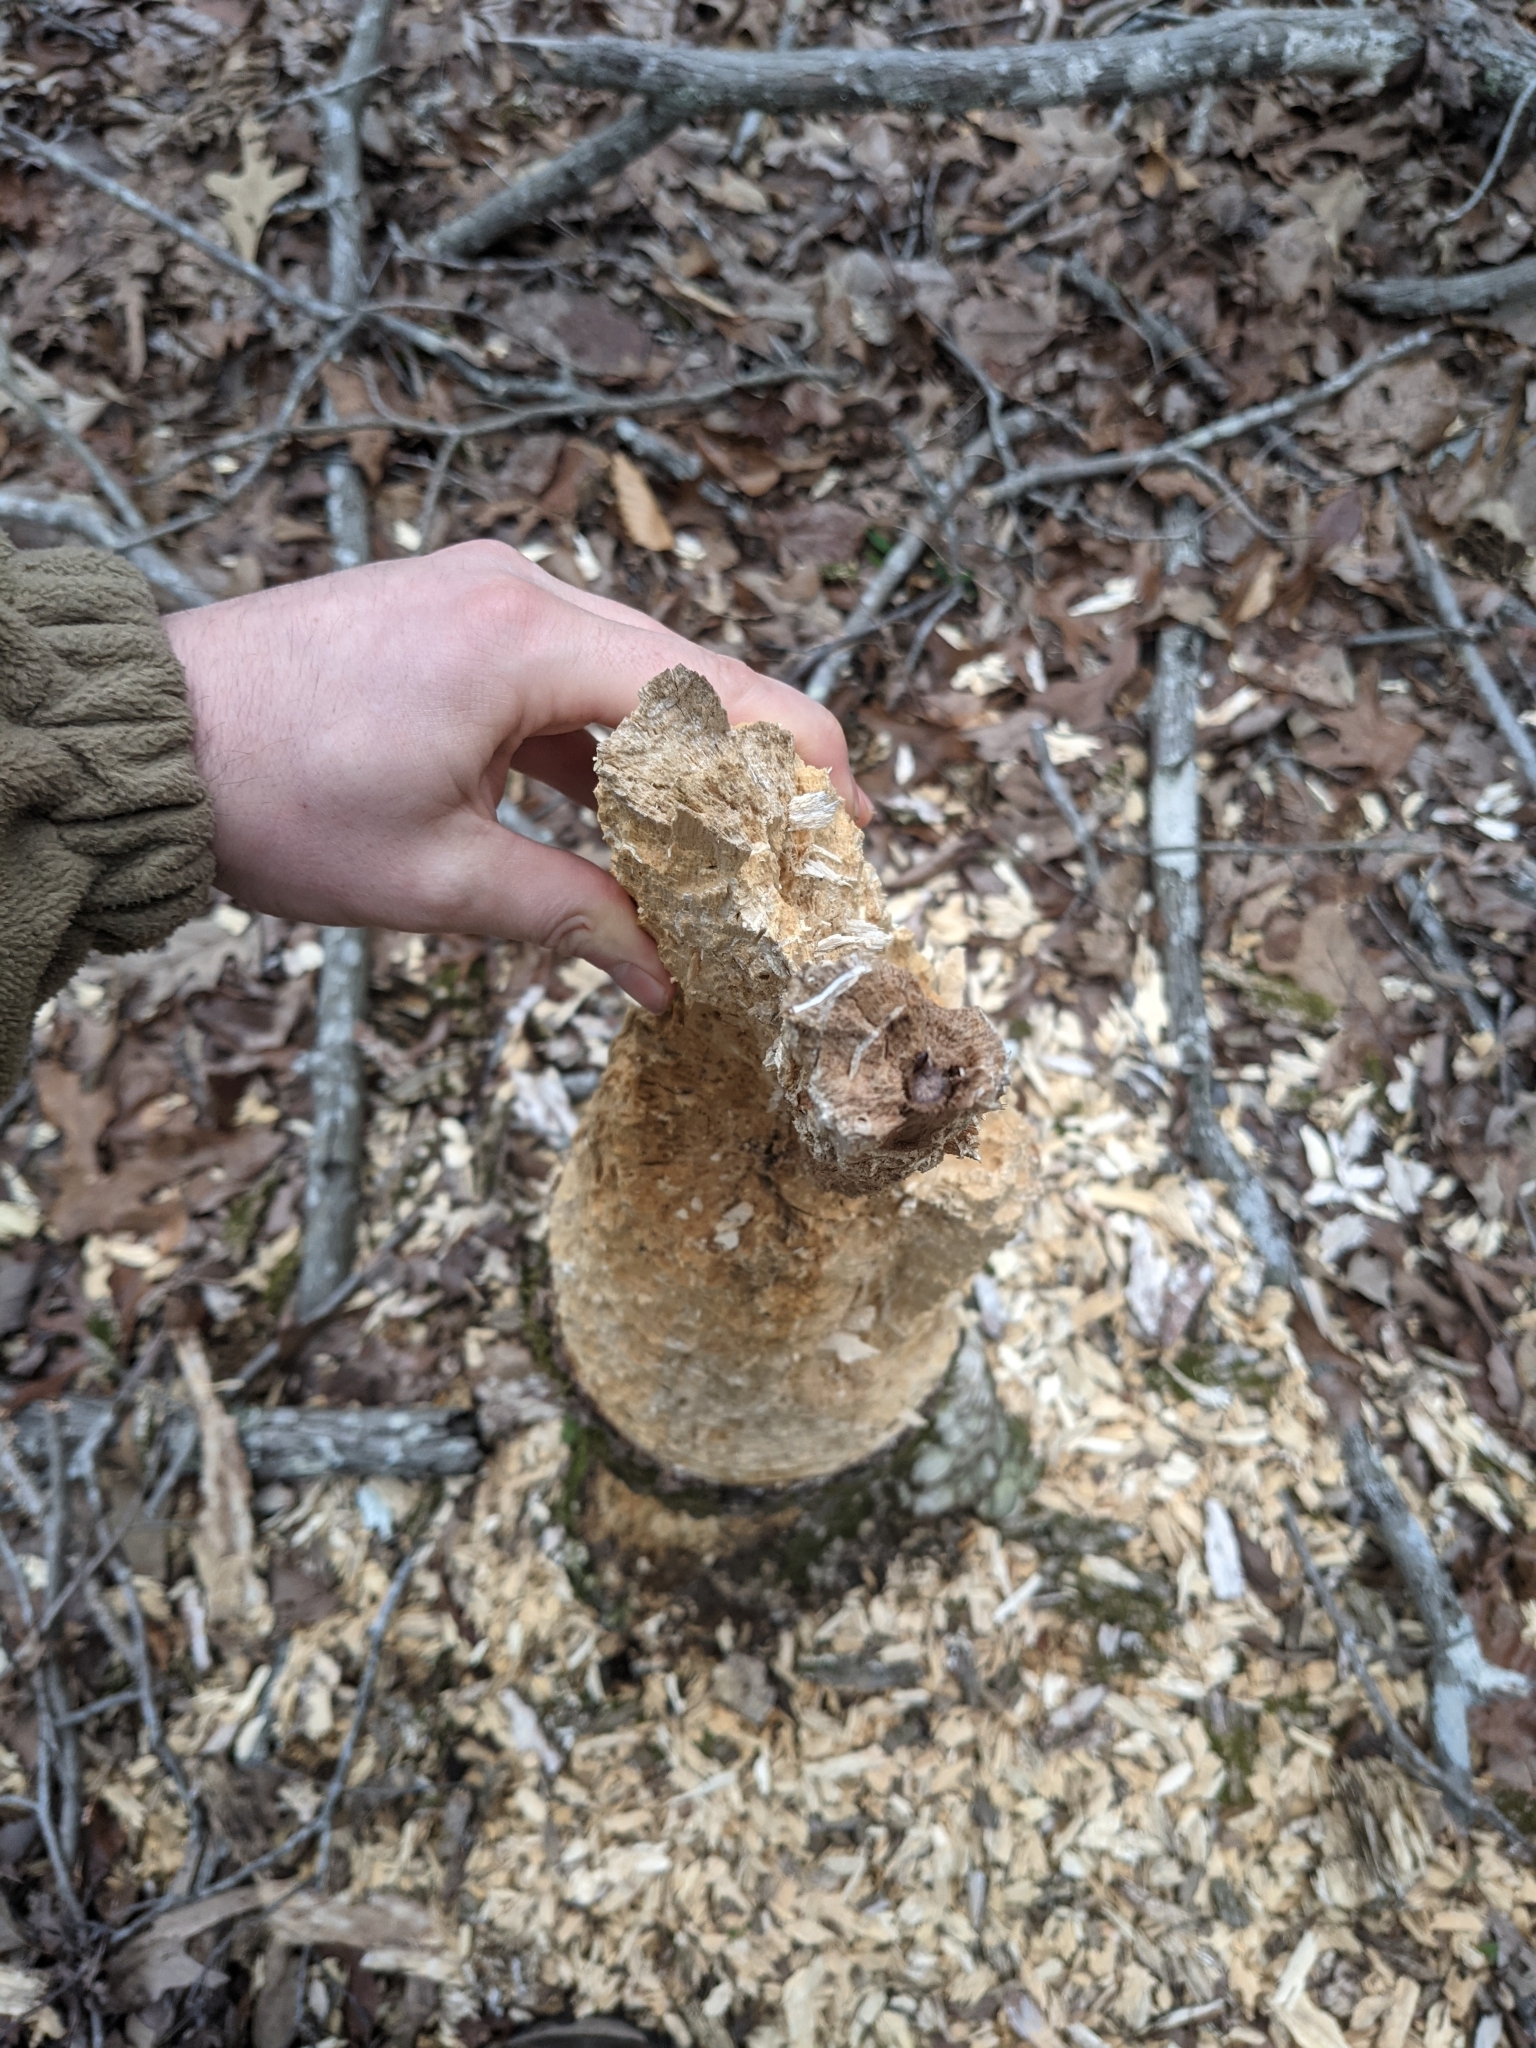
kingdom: Animalia
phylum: Chordata
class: Aves
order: Piciformes
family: Picidae
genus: Dryocopus
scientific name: Dryocopus pileatus
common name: Pileated woodpecker
